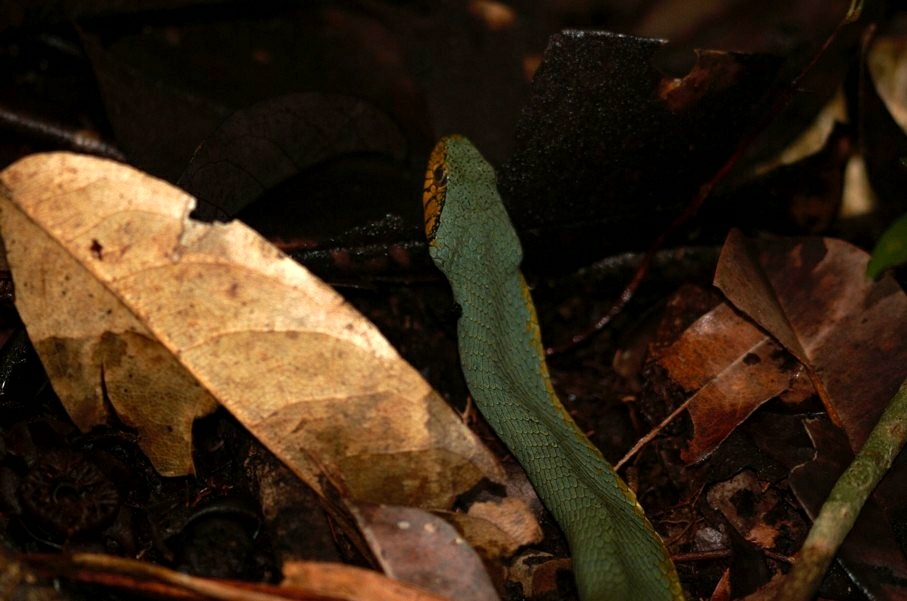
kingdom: Animalia
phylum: Chordata
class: Squamata
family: Colubridae
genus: Xenodon
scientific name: Xenodon werneri
